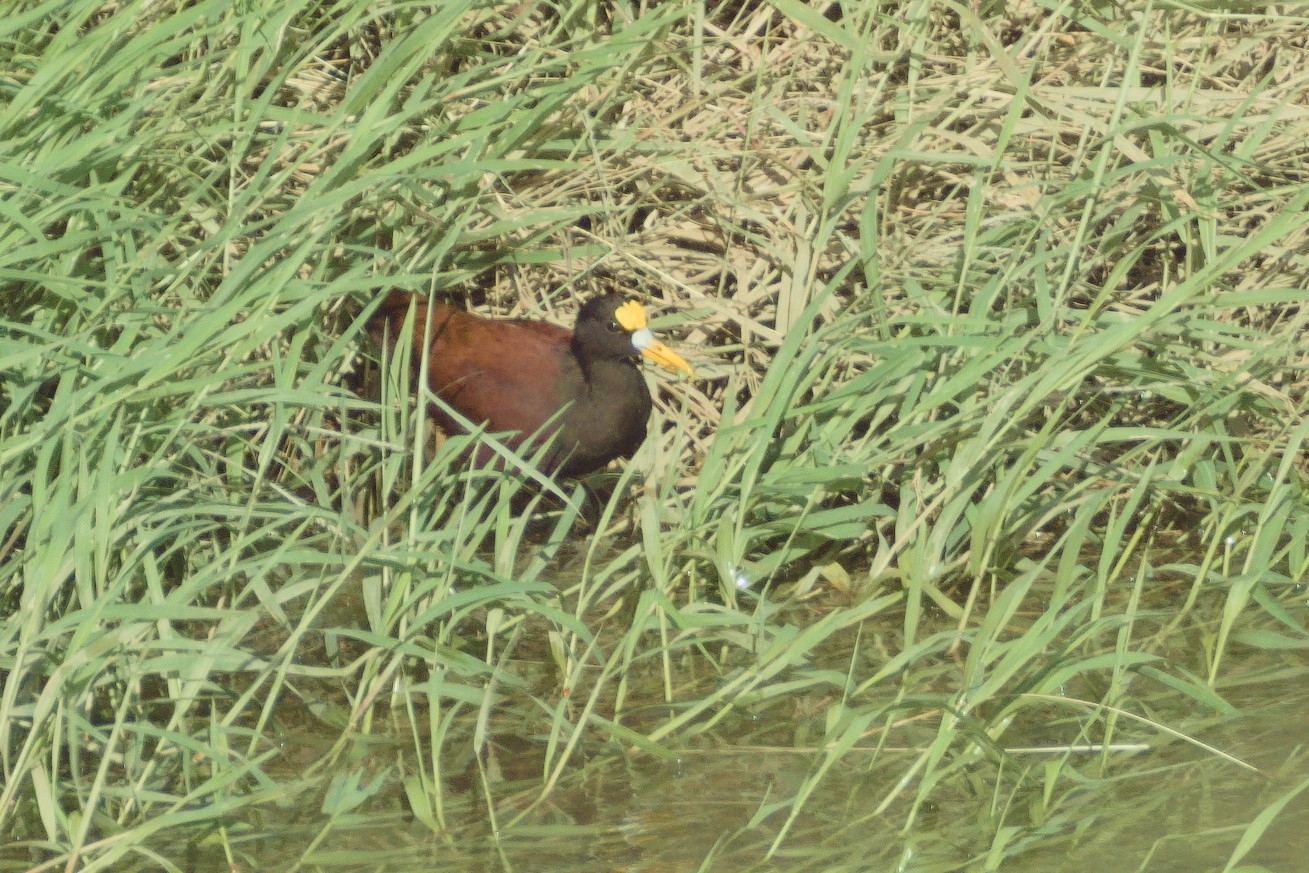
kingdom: Animalia
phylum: Chordata
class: Aves
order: Charadriiformes
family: Jacanidae
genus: Jacana
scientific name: Jacana spinosa
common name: Northern jacana
